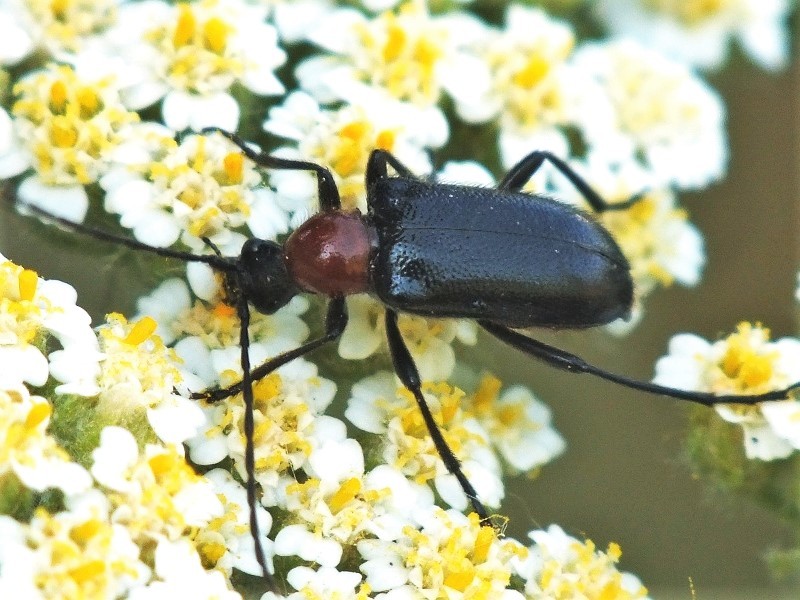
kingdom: Animalia
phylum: Arthropoda
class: Insecta
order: Coleoptera
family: Cerambycidae
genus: Dinoptera
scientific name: Dinoptera collaris
